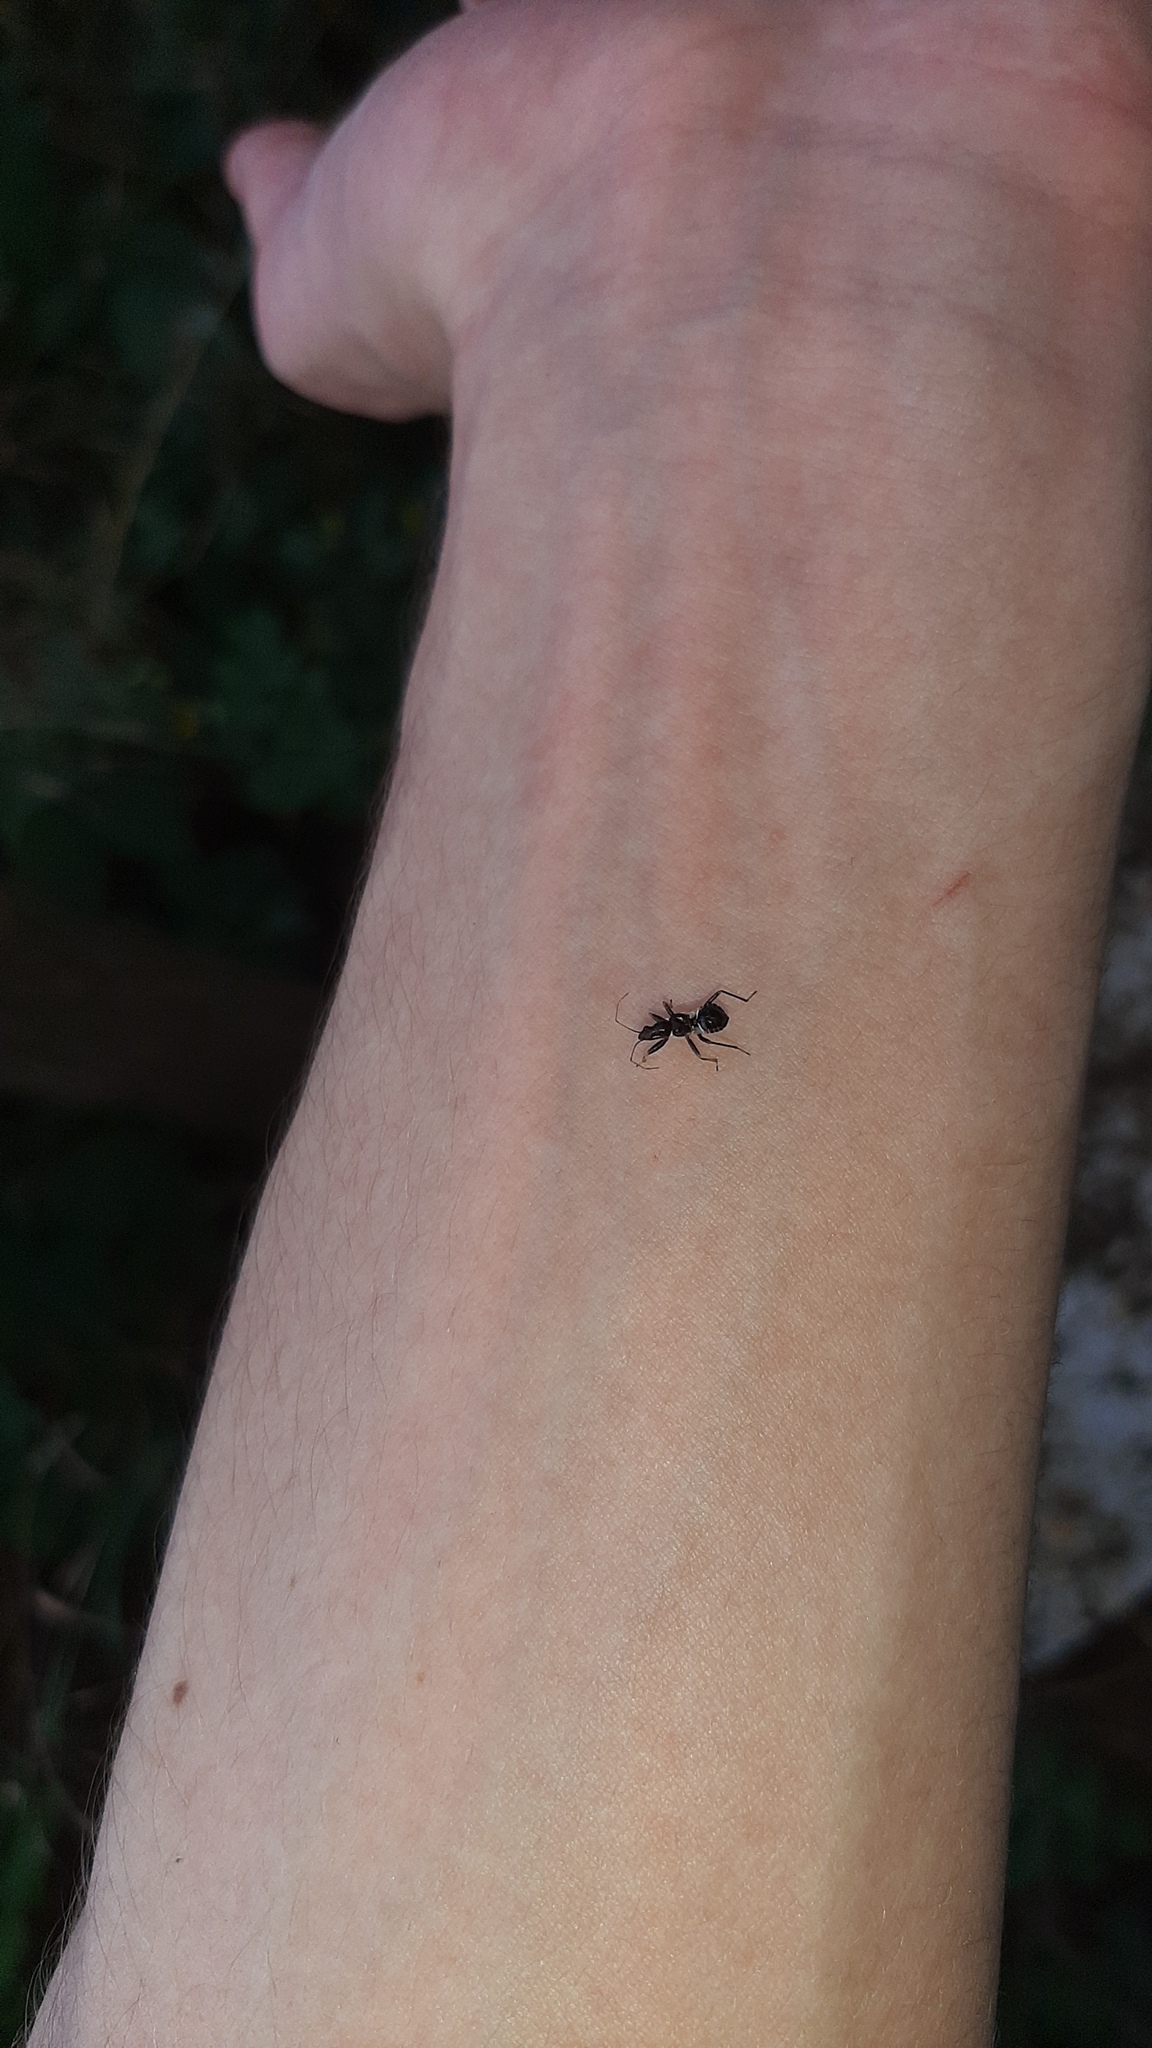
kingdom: Animalia
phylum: Arthropoda
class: Insecta
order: Hemiptera
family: Nabidae
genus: Himacerus
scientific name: Himacerus mirmicoides
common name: Ant damsel bug
